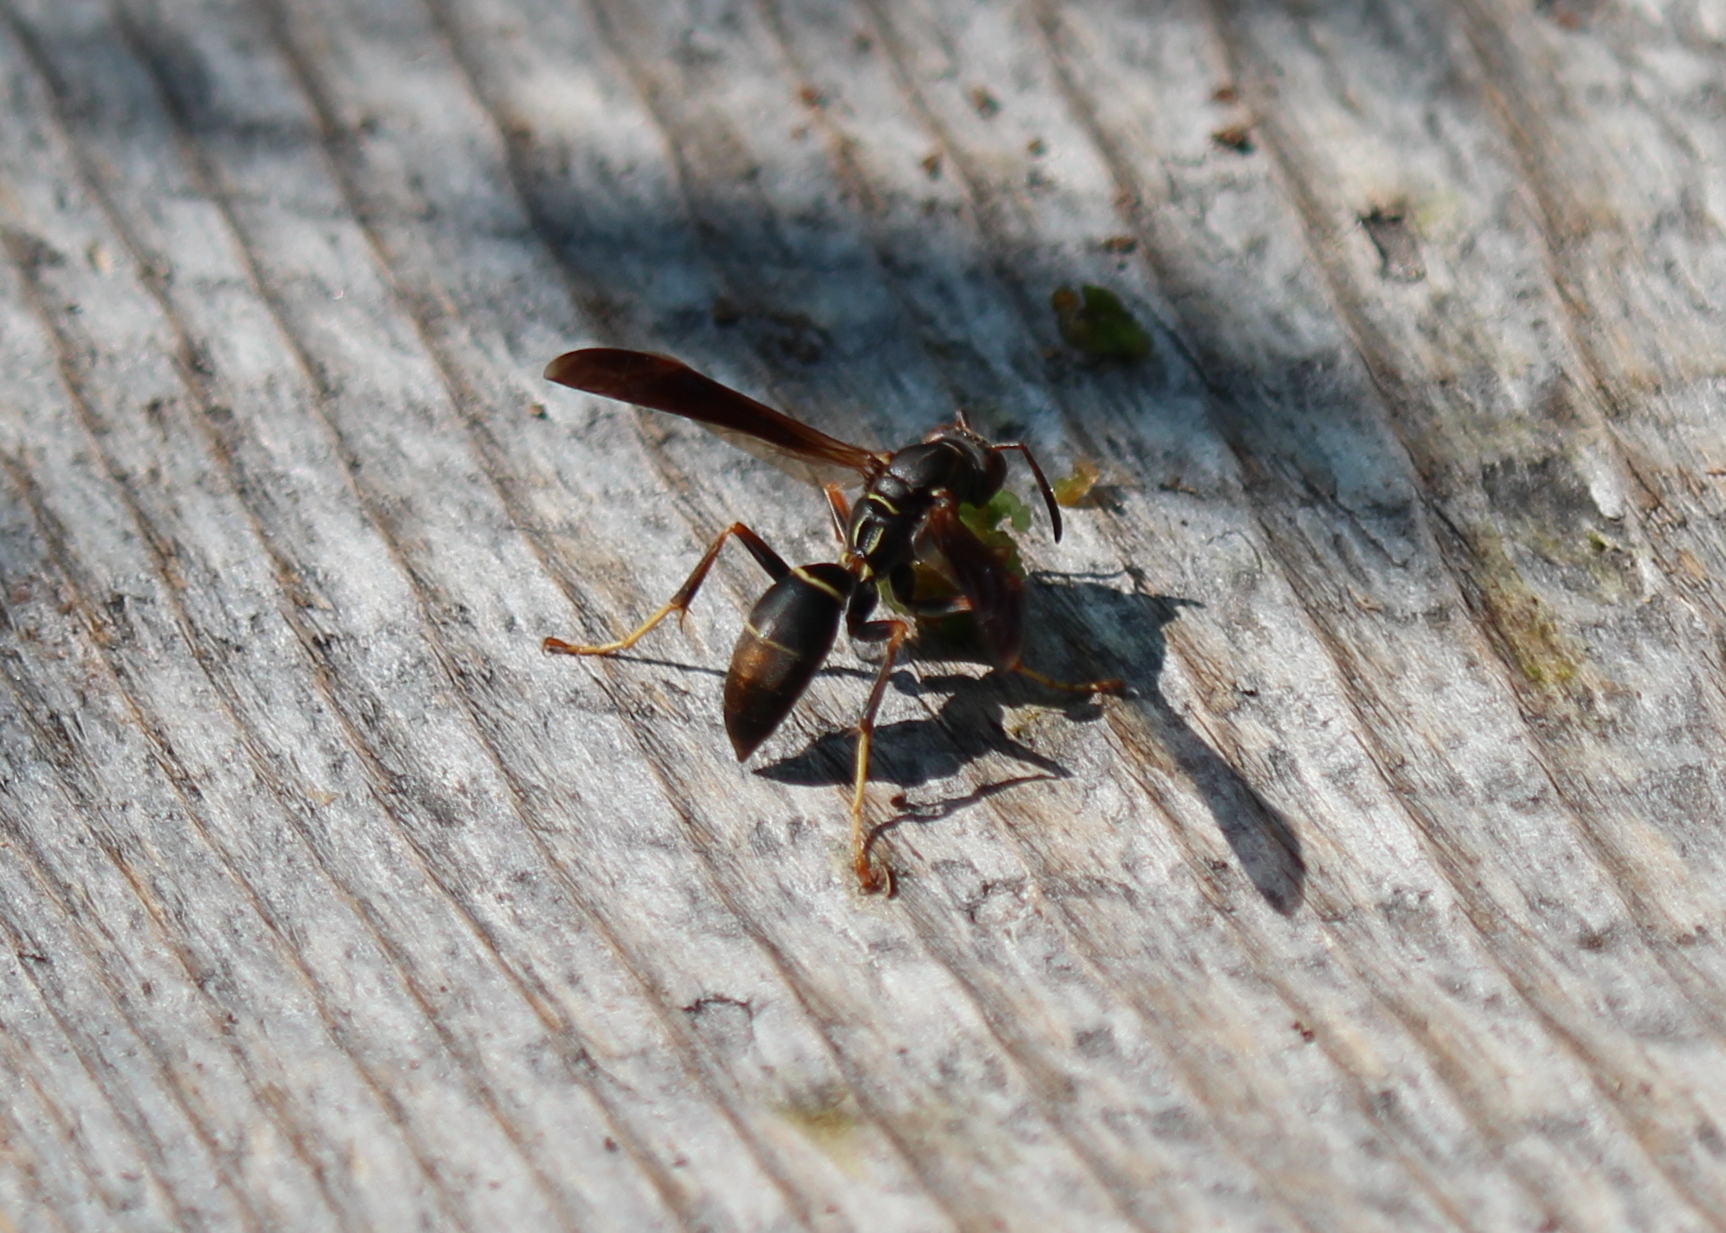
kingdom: Animalia
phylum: Arthropoda
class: Insecta
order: Hymenoptera
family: Eumenidae
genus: Polistes
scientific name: Polistes fuscatus
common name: Dark paper wasp
